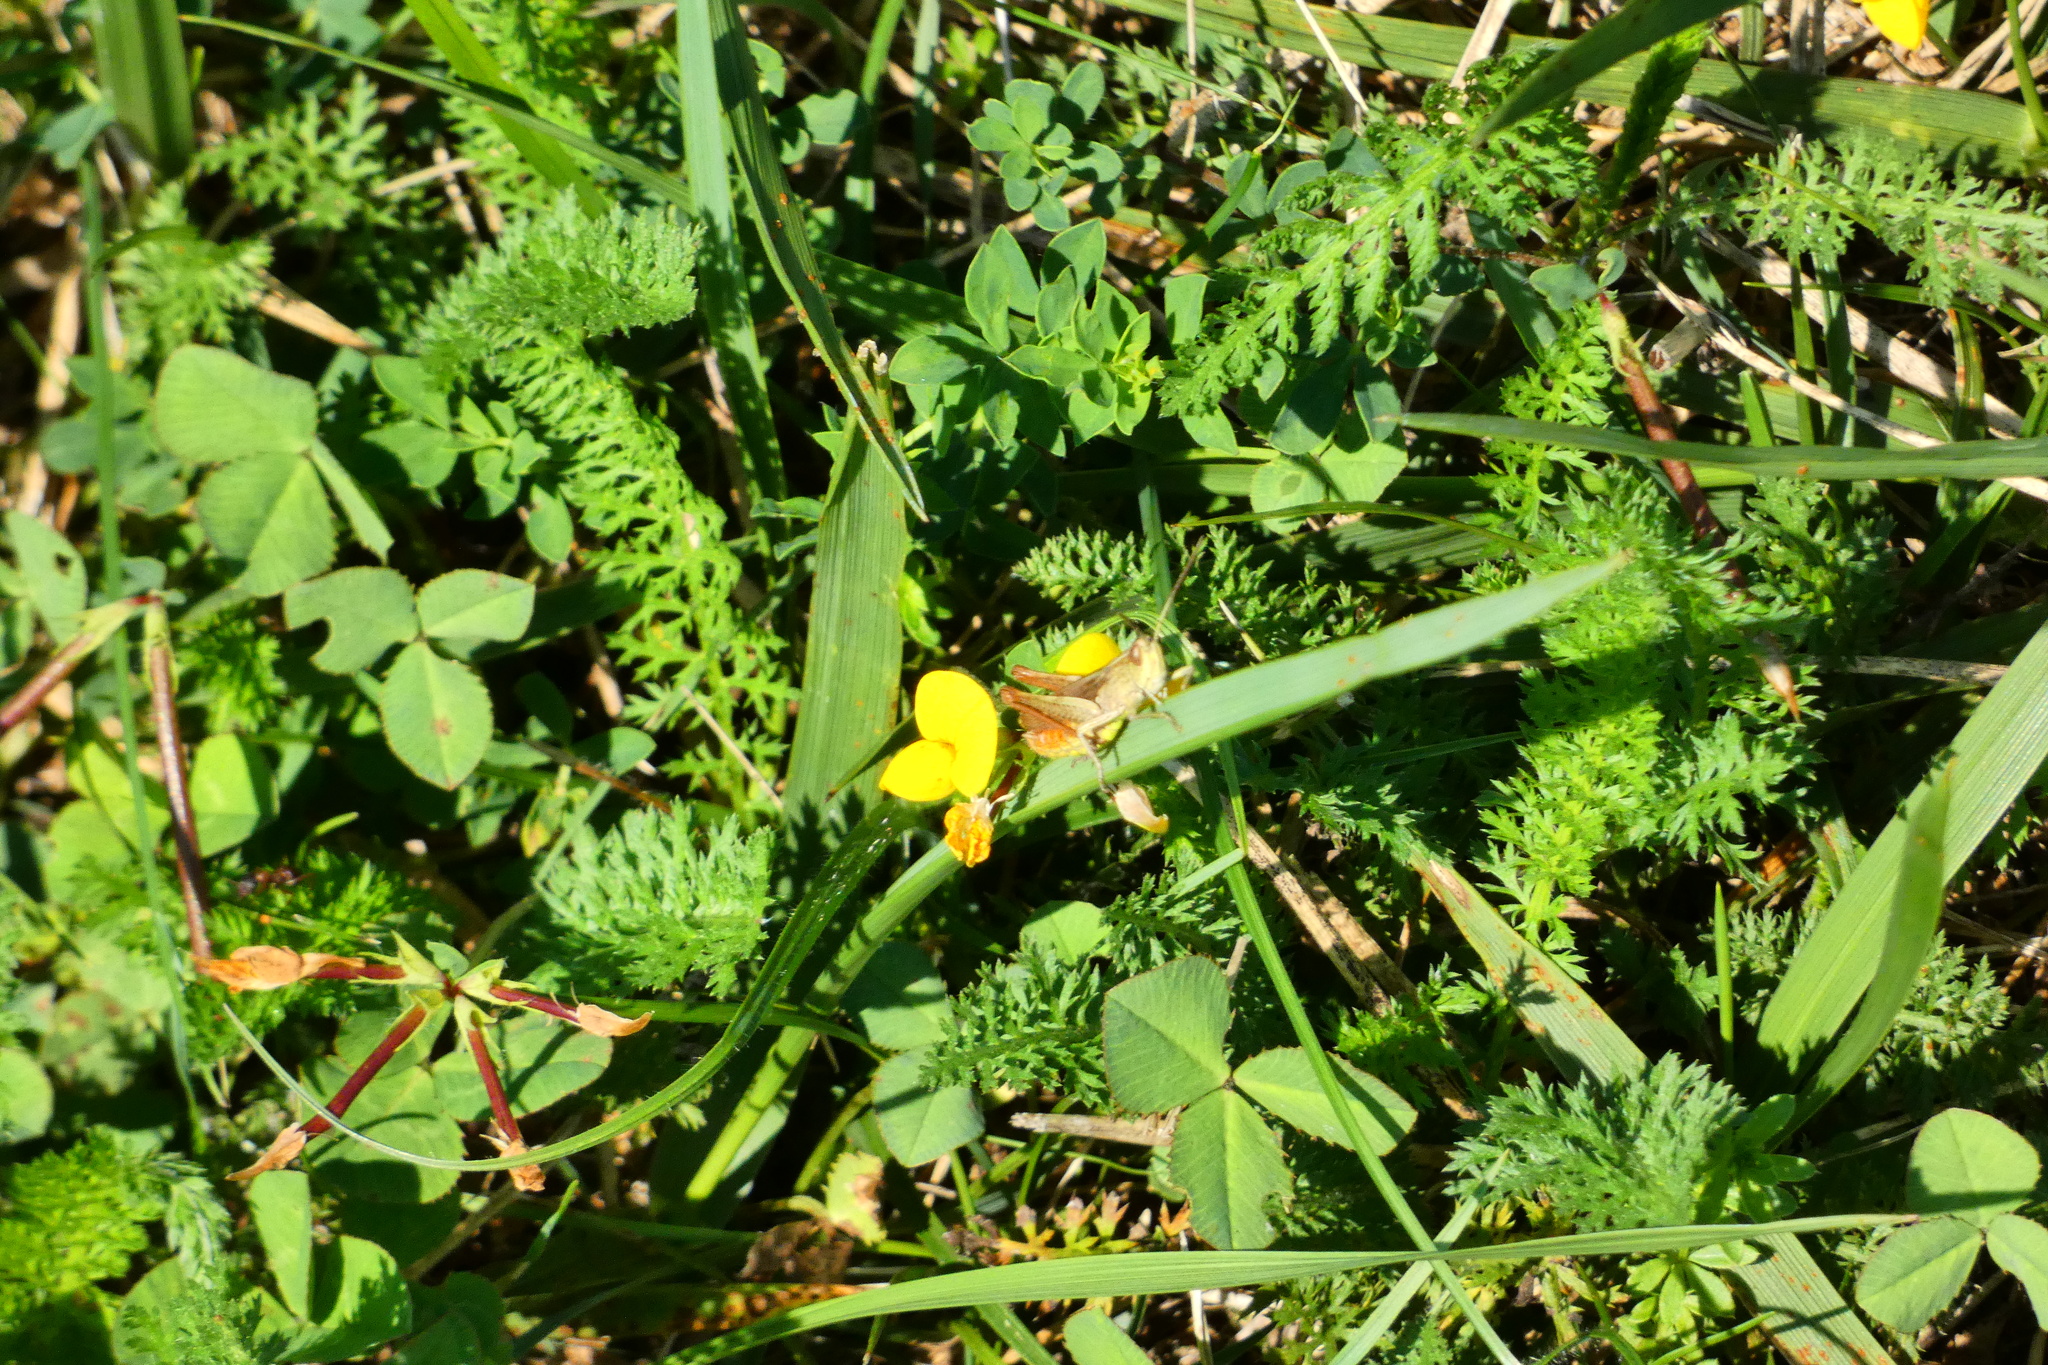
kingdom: Animalia
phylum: Arthropoda
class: Insecta
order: Orthoptera
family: Acrididae
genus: Chorthippus
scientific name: Chorthippus dorsatus
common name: Steppe grasshopper
